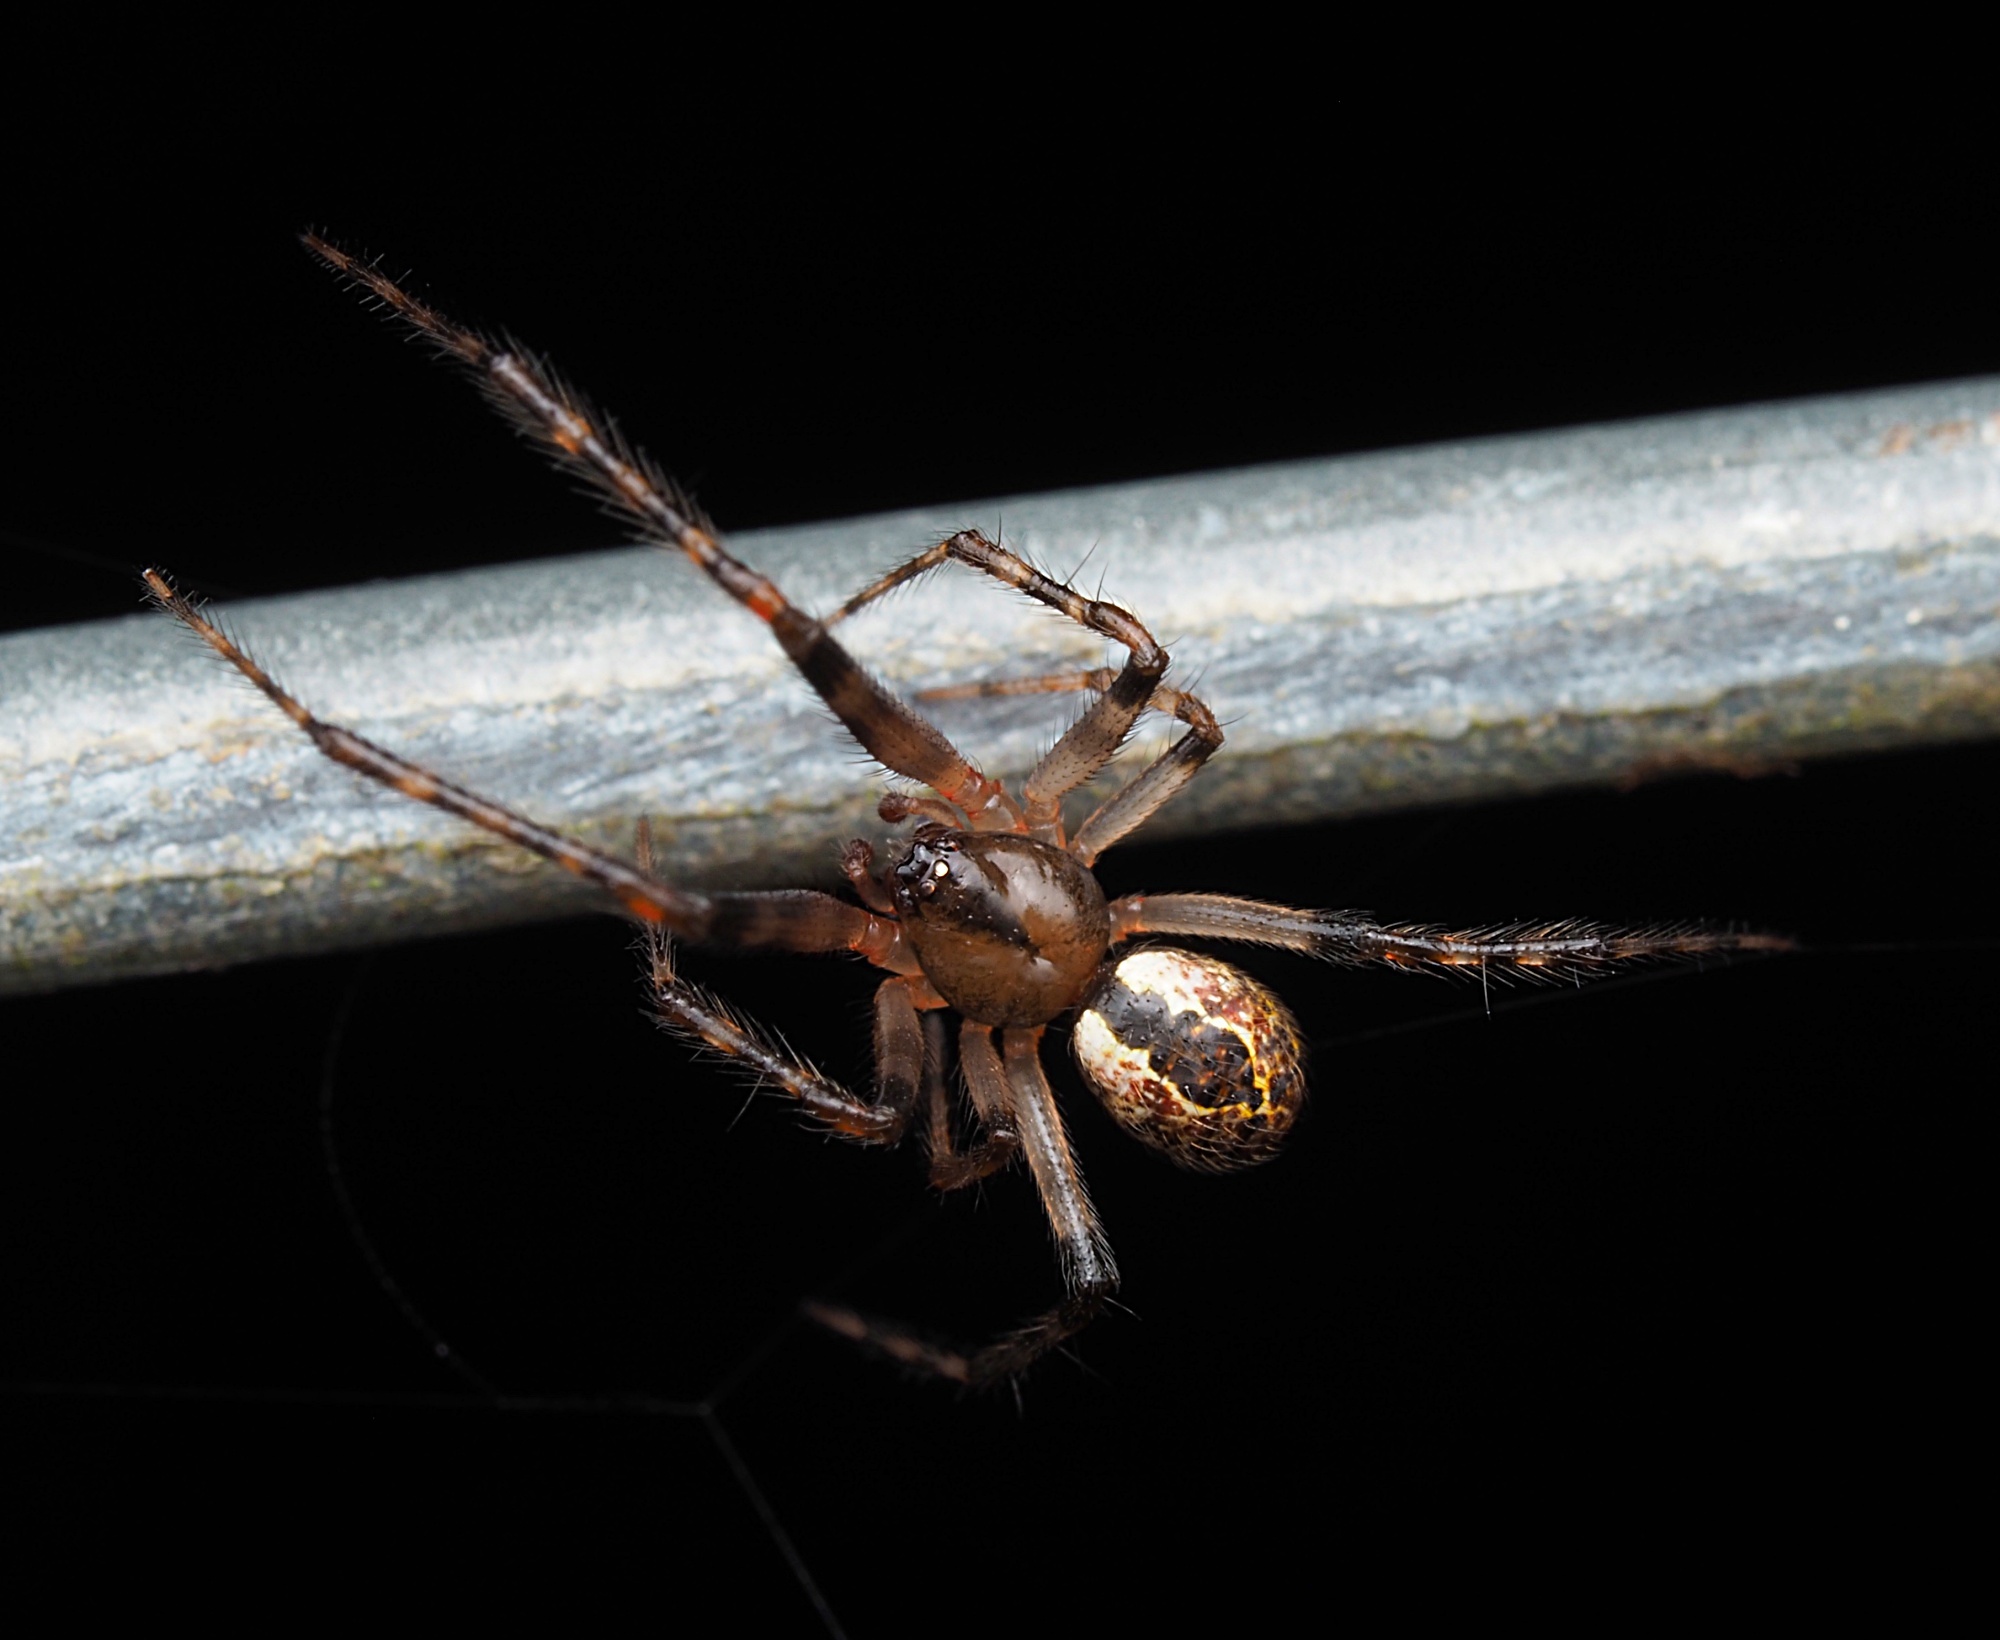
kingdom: Animalia
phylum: Arthropoda
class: Arachnida
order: Araneae
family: Theridiidae
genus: Cryptachaea
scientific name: Cryptachaea veruculata
